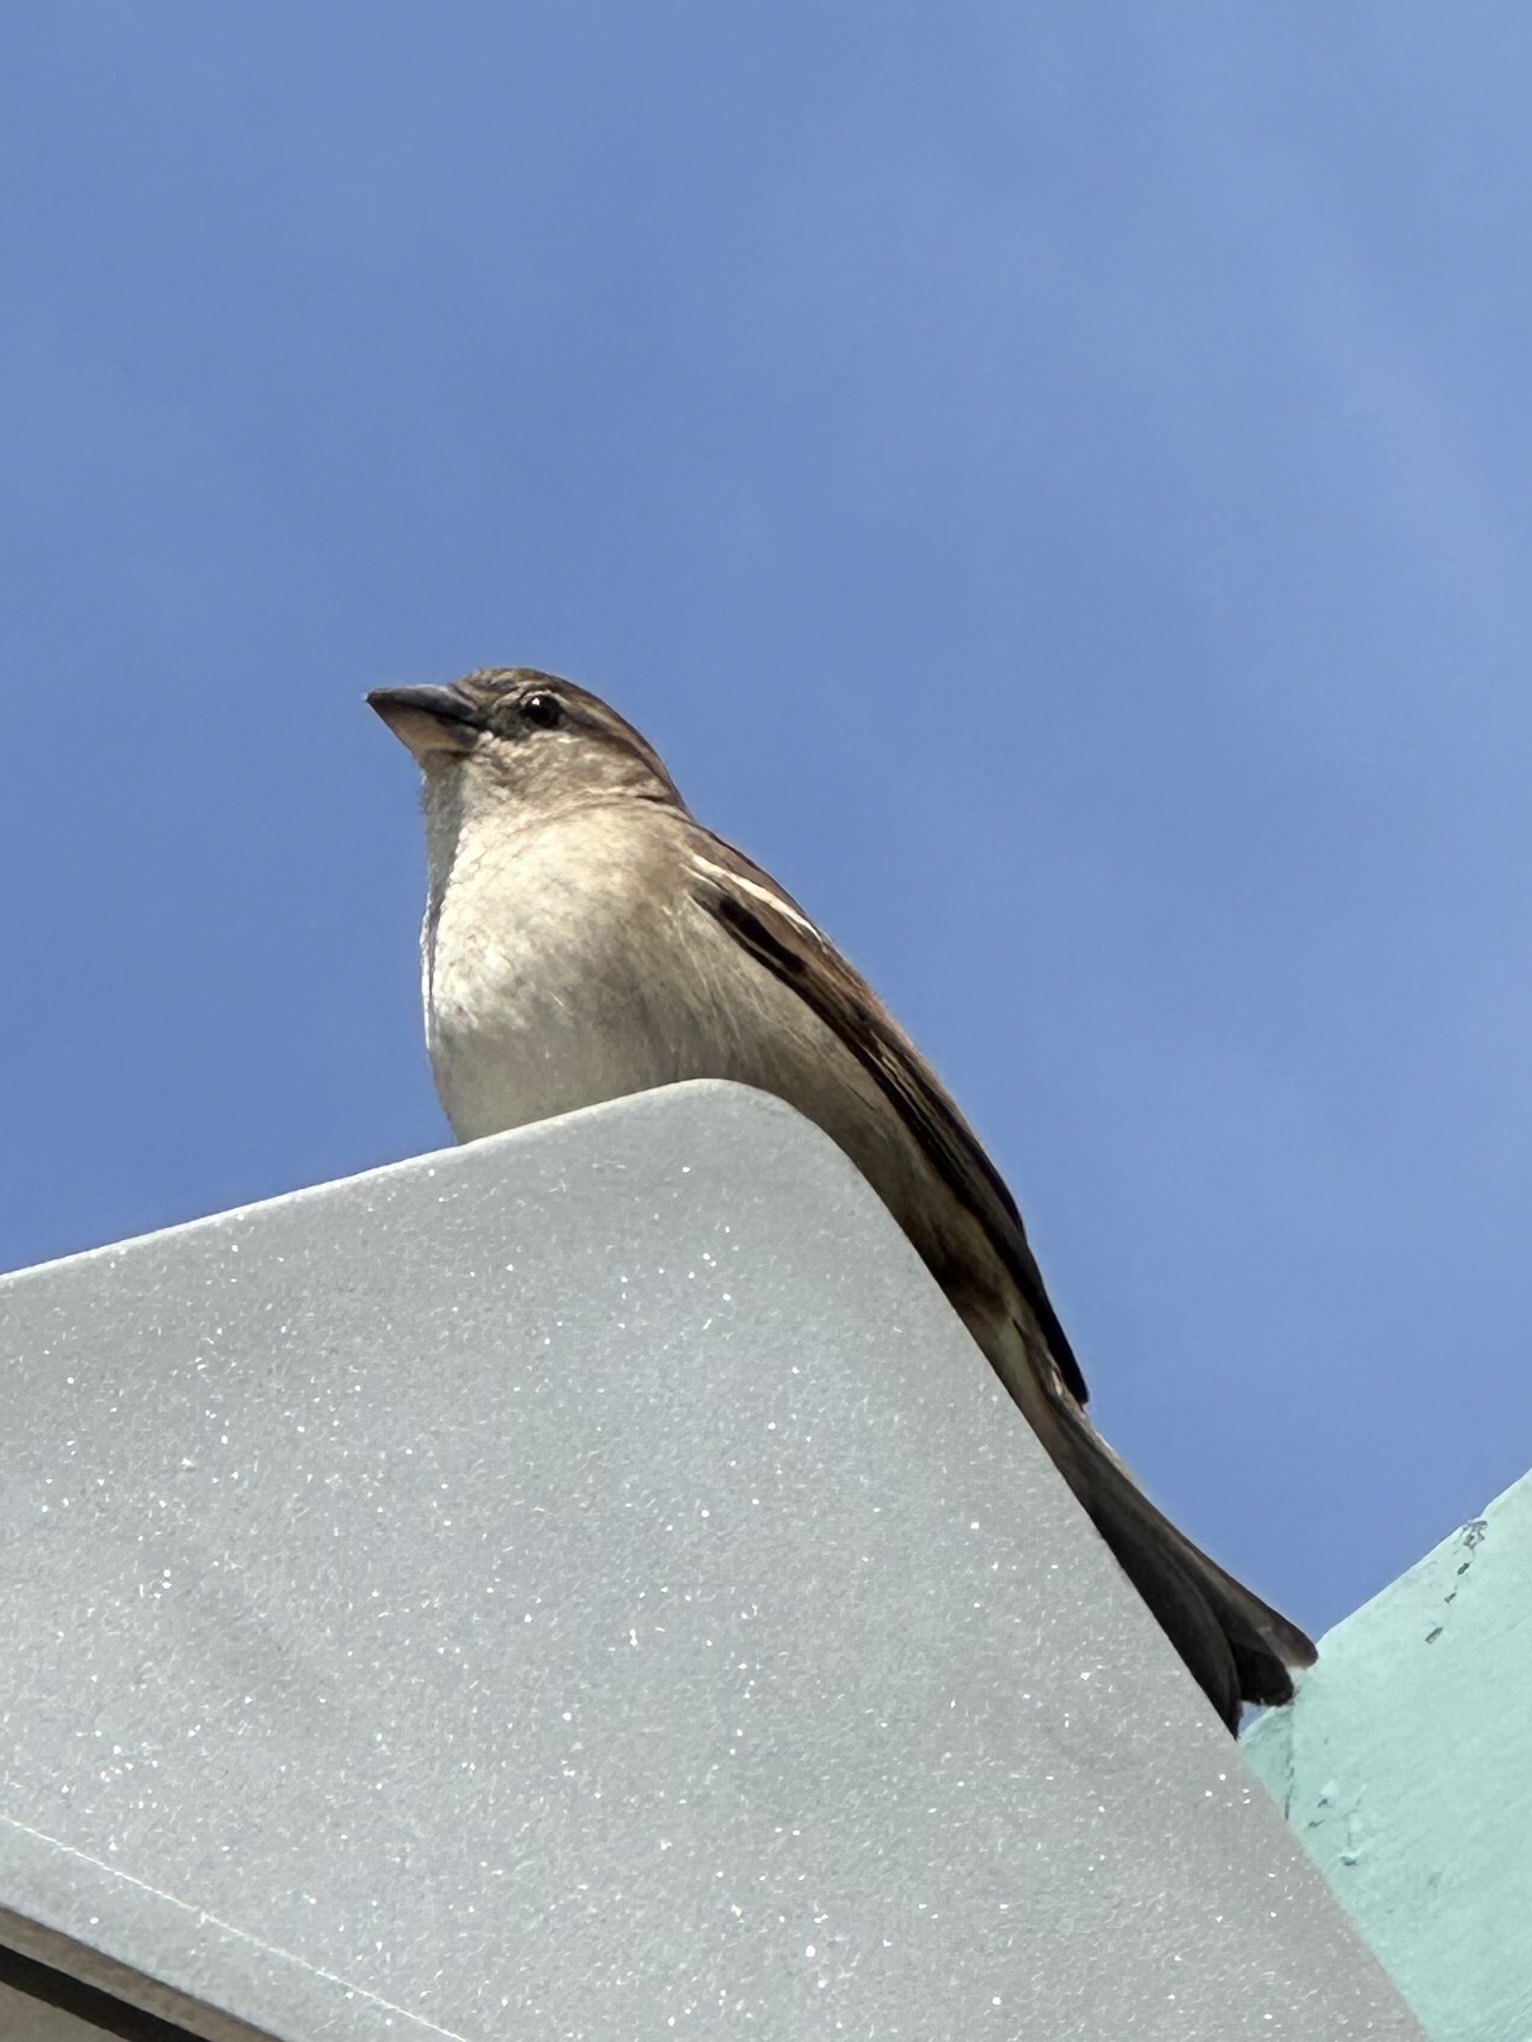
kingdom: Animalia
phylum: Chordata
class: Aves
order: Passeriformes
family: Passeridae
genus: Passer
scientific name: Passer domesticus
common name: House sparrow
